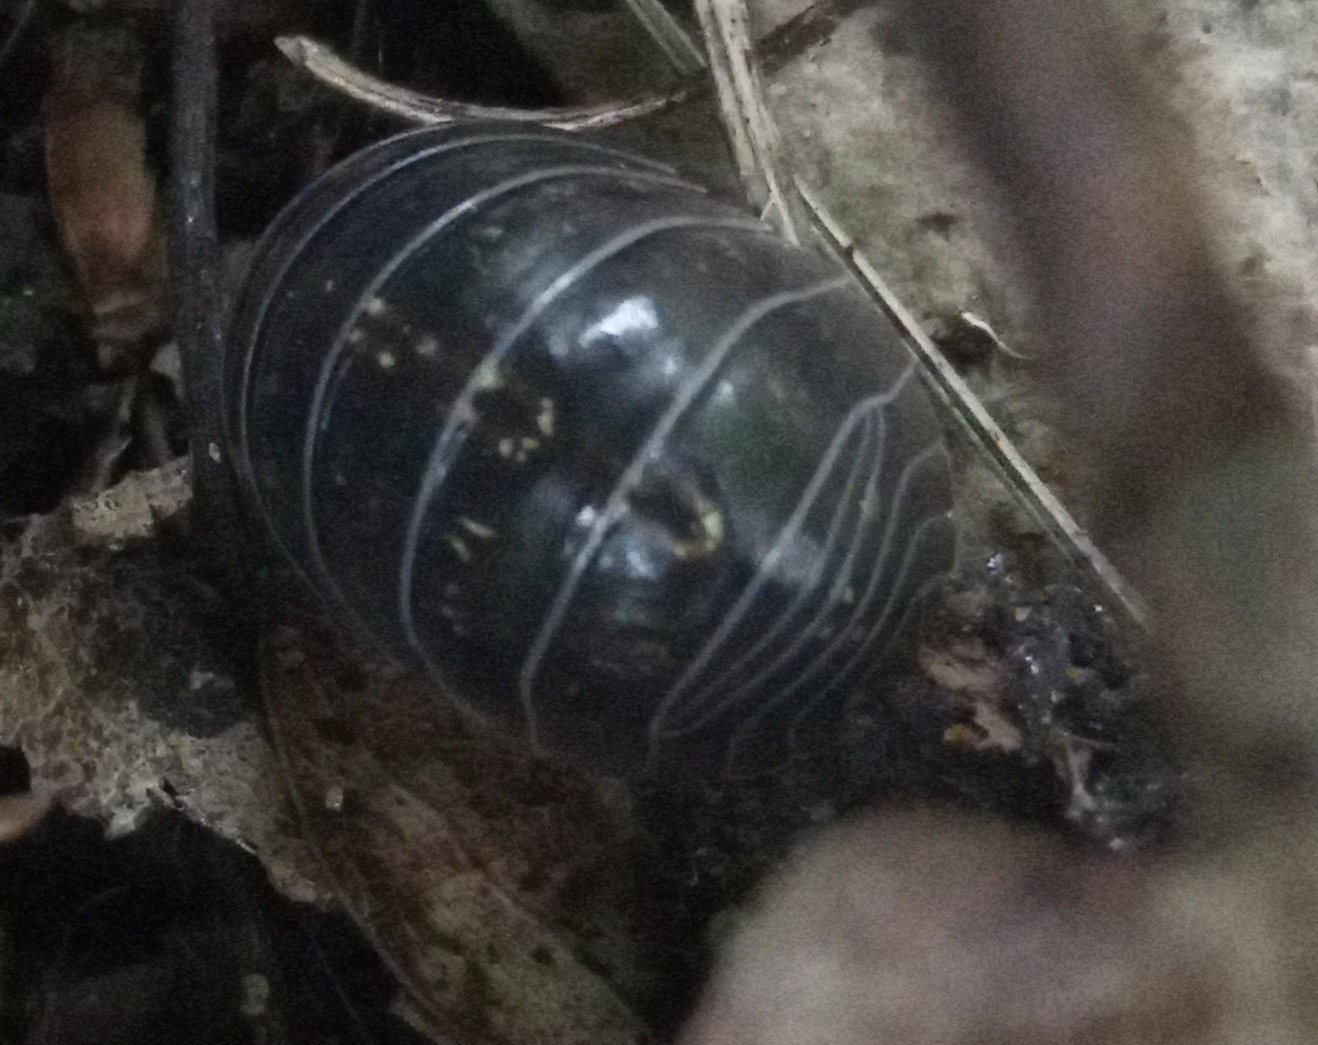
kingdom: Animalia
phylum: Arthropoda
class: Malacostraca
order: Isopoda
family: Armadillidiidae
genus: Armadillidium
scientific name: Armadillidium vulgare
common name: Common pill woodlouse
